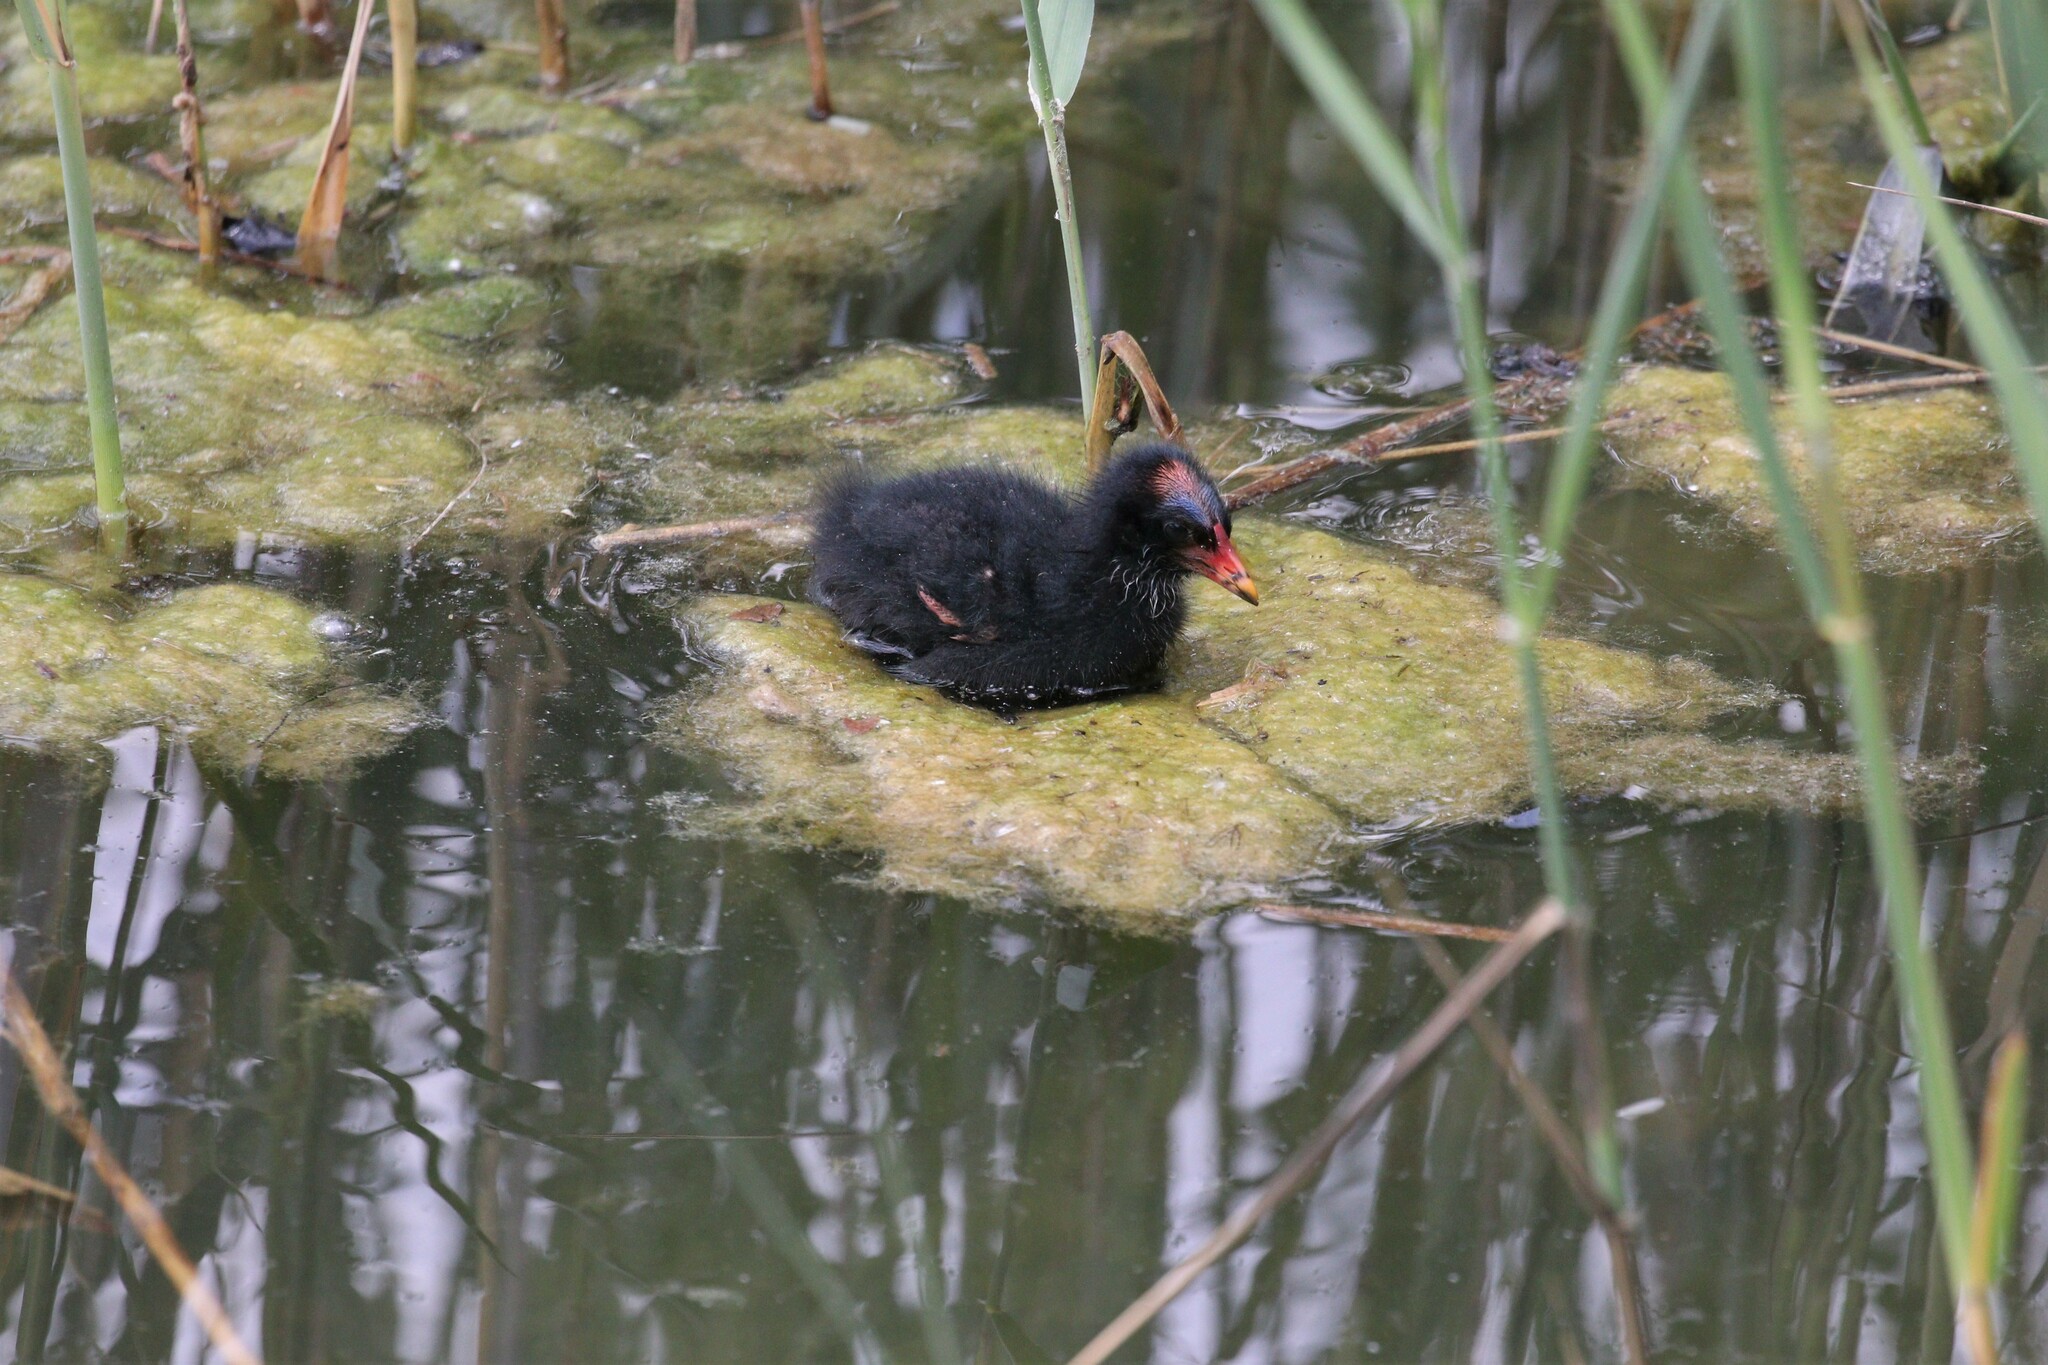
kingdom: Animalia
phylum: Chordata
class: Aves
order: Gruiformes
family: Rallidae
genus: Gallinula
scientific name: Gallinula chloropus
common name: Common moorhen
